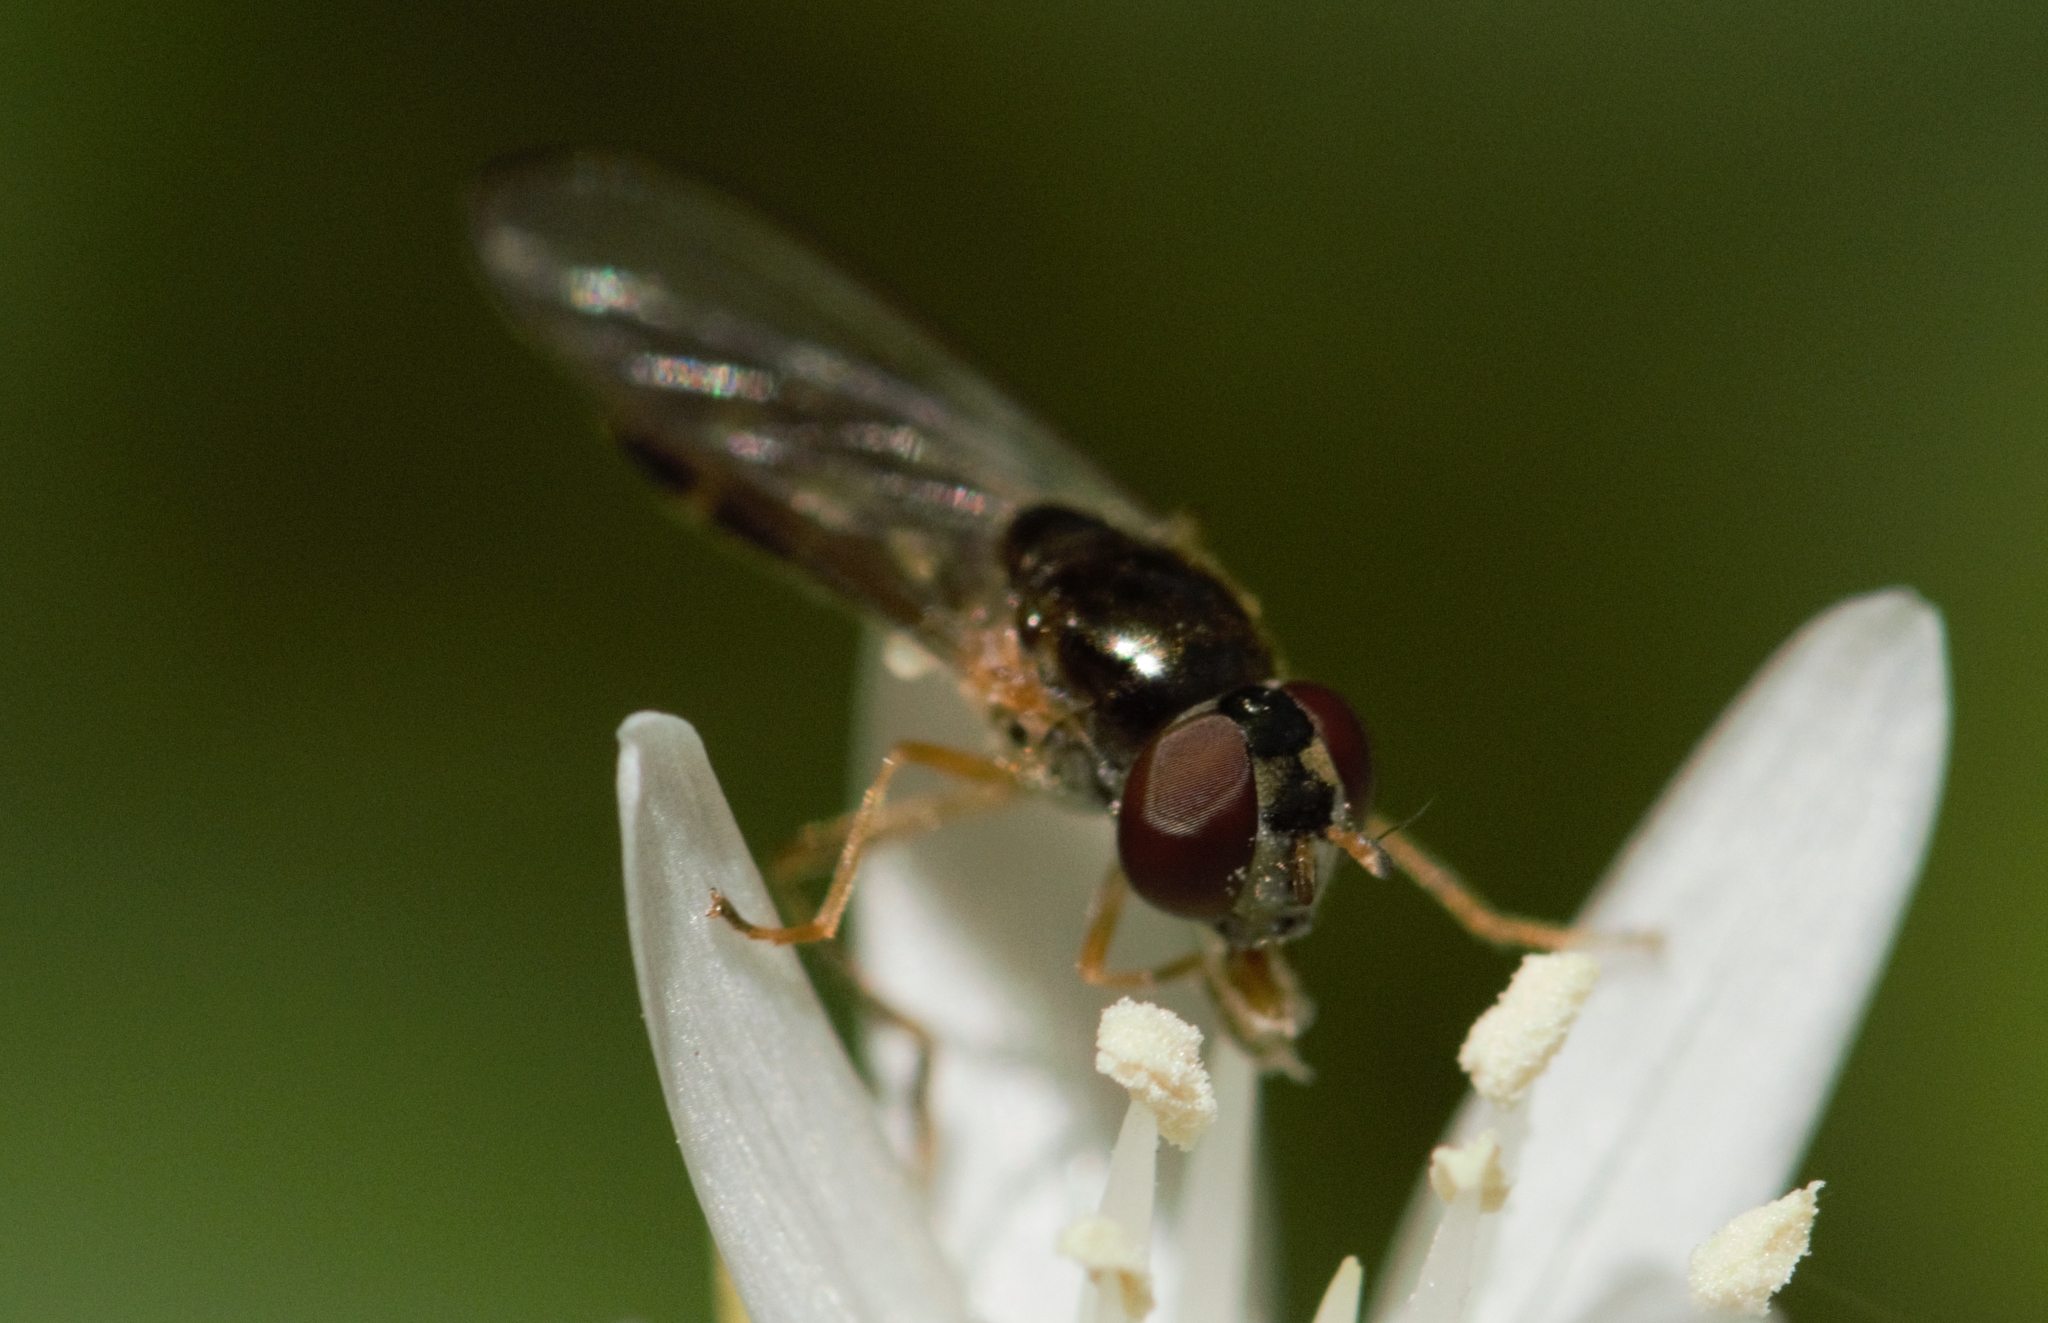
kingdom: Animalia
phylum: Arthropoda
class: Insecta
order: Diptera
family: Syrphidae
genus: Melanostoma
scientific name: Melanostoma scalare
